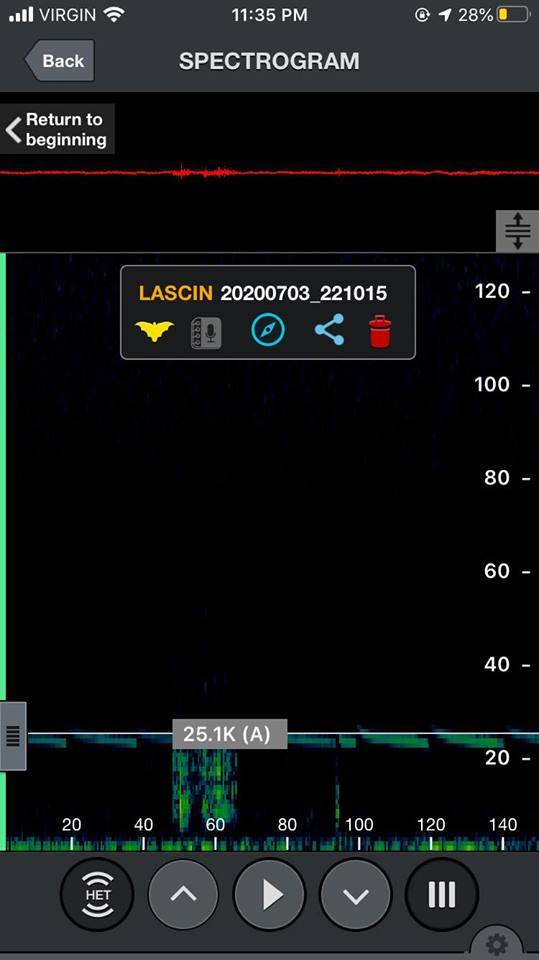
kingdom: Animalia
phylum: Chordata
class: Mammalia
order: Chiroptera
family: Vespertilionidae
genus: Aeorestes
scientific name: Aeorestes cinereus
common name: North american hoary bat
